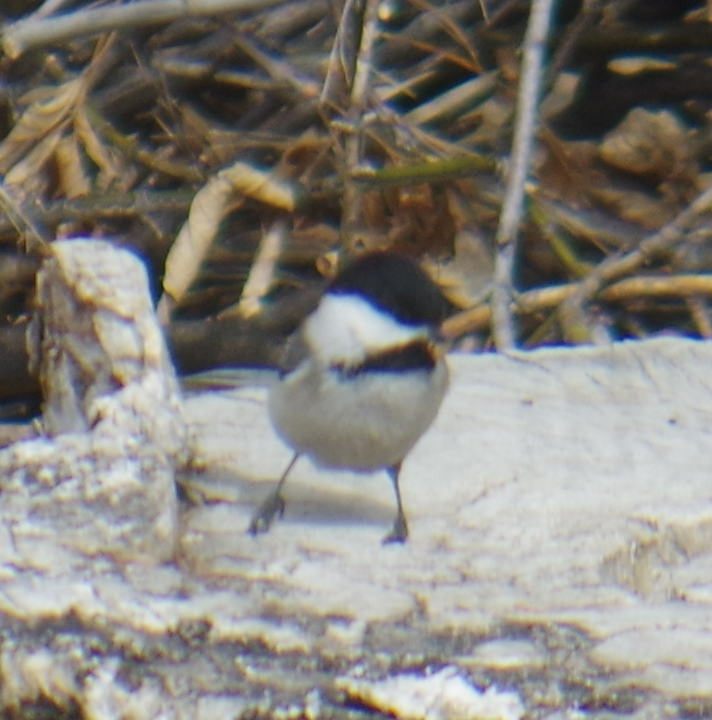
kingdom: Animalia
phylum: Chordata
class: Aves
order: Passeriformes
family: Paridae
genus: Poecile
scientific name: Poecile atricapillus
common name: Black-capped chickadee
